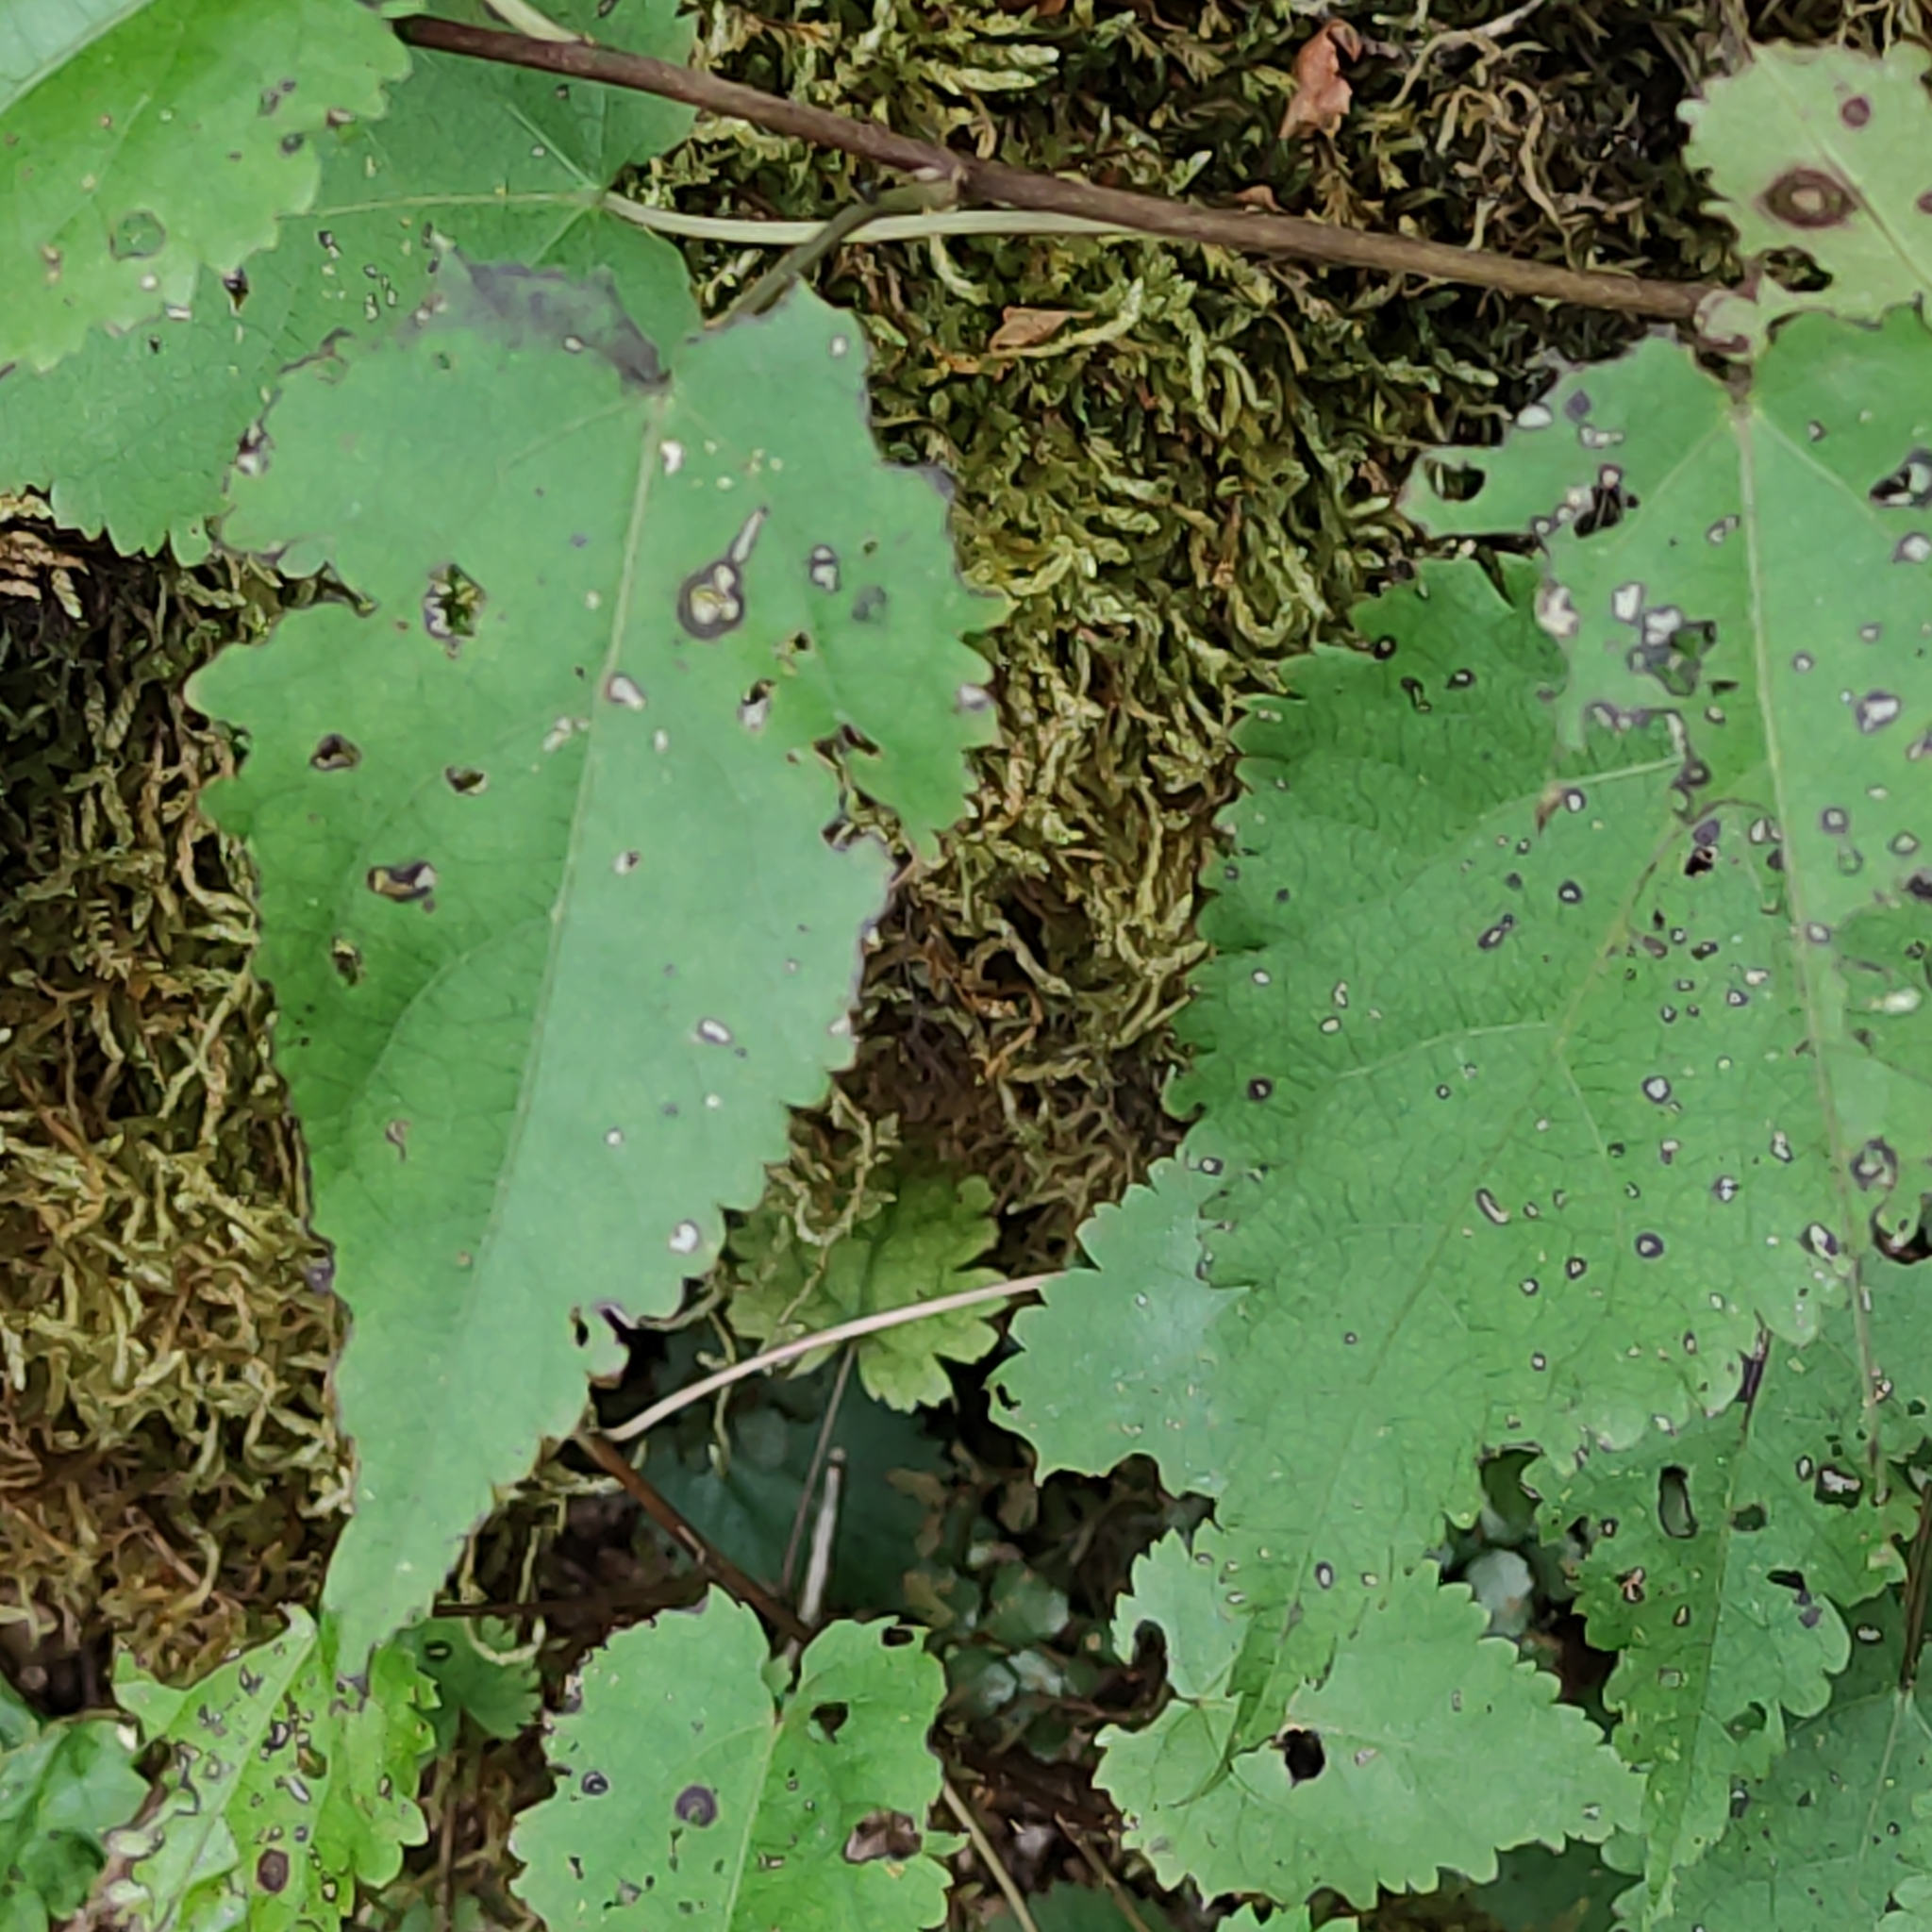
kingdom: Plantae
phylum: Tracheophyta
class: Magnoliopsida
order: Malvales
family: Malvaceae
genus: Hoheria
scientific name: Hoheria glabrata
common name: Mountain-ribbon
